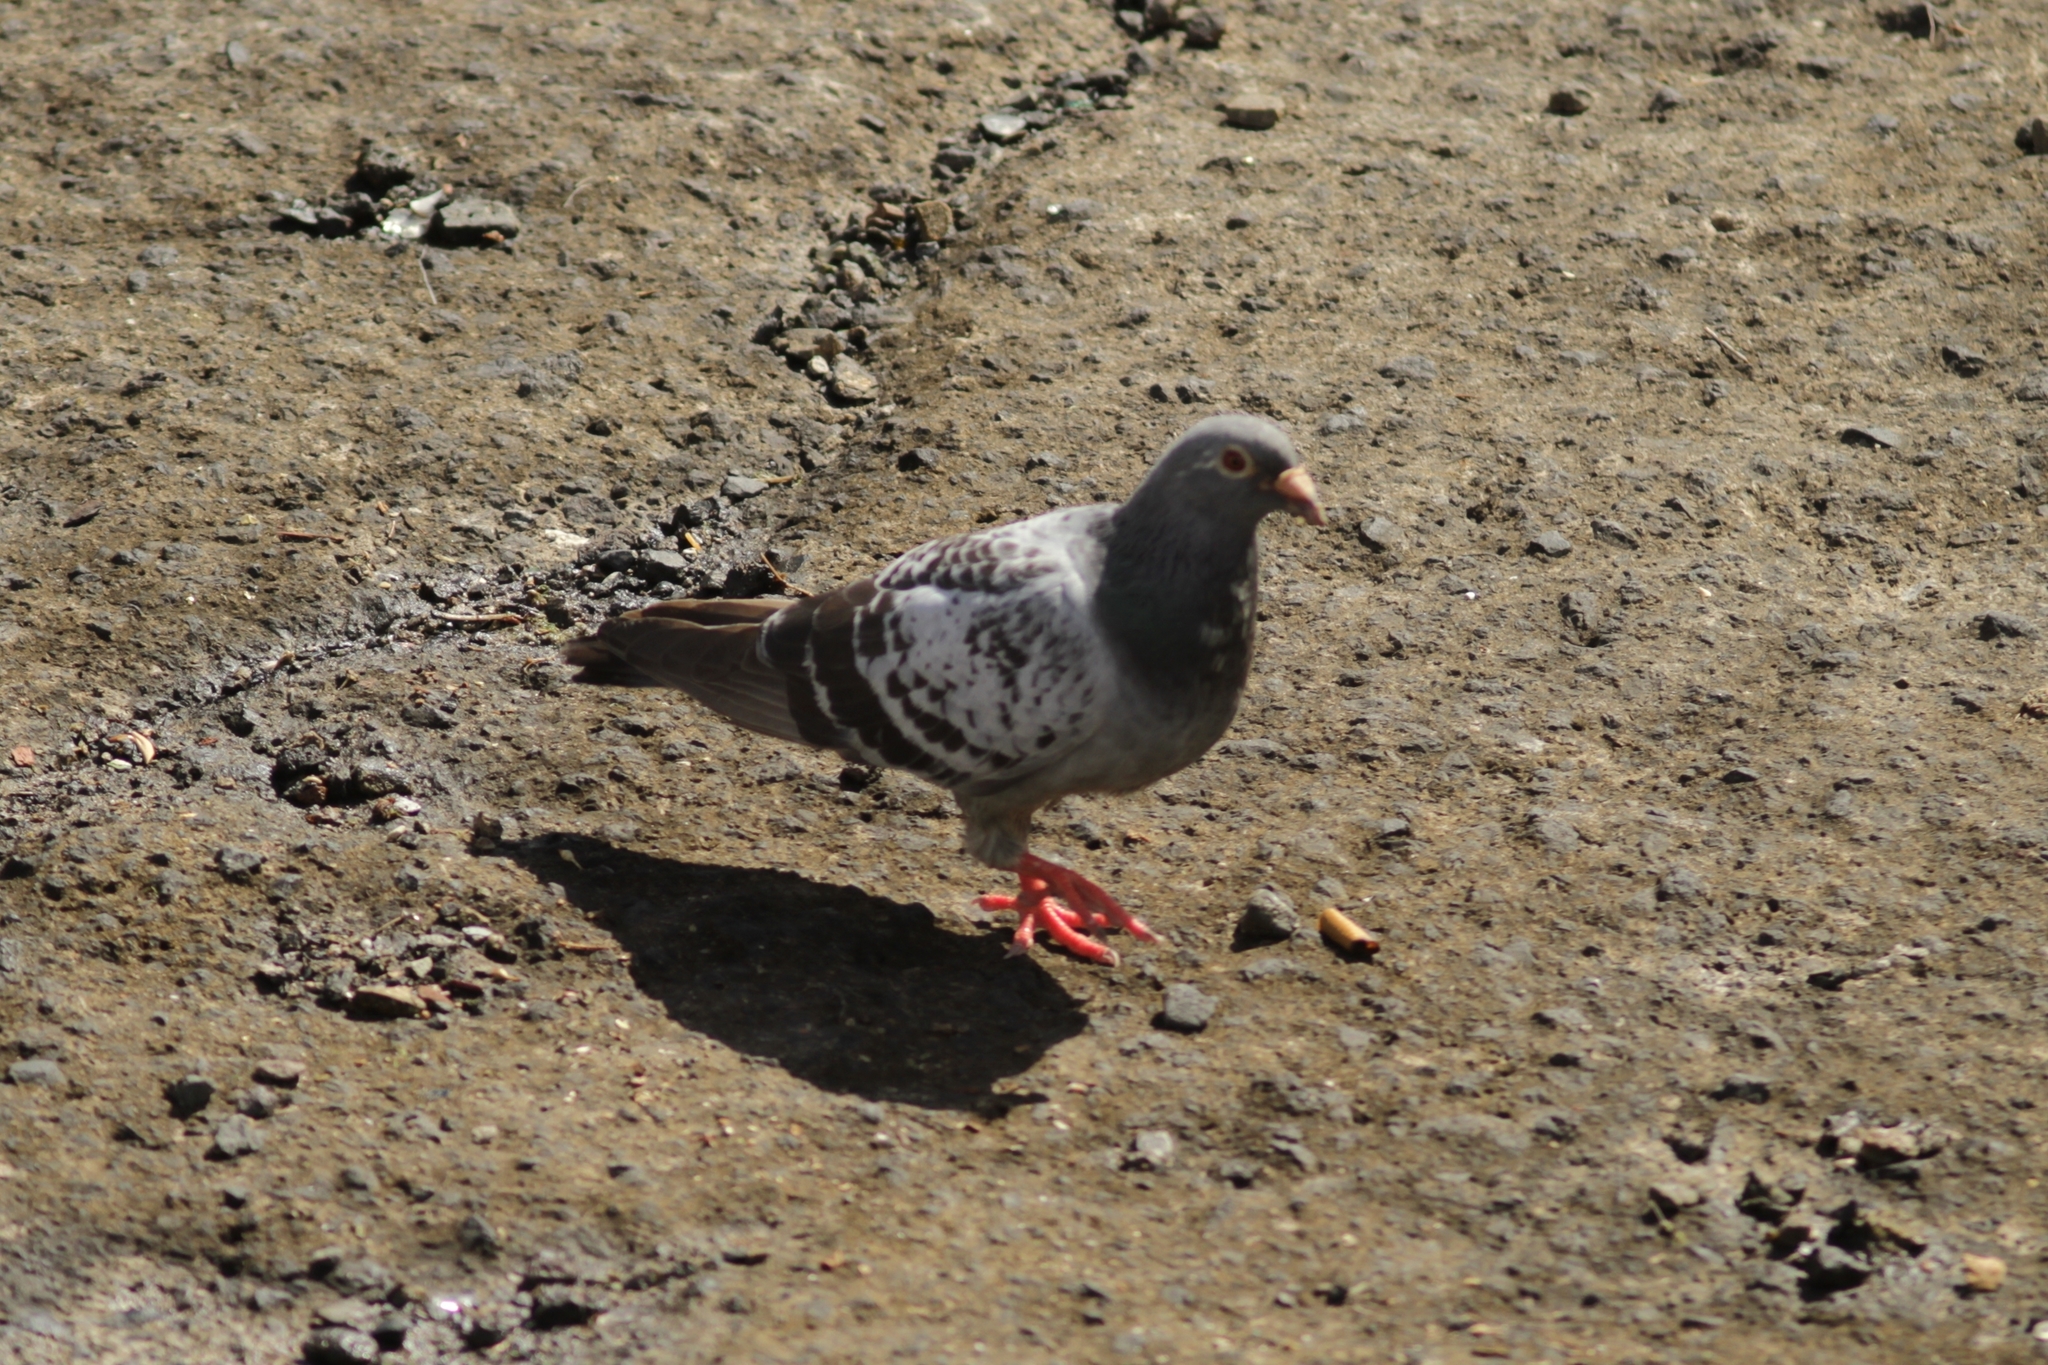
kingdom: Animalia
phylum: Chordata
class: Aves
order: Columbiformes
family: Columbidae
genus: Columba
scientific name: Columba livia
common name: Rock pigeon
